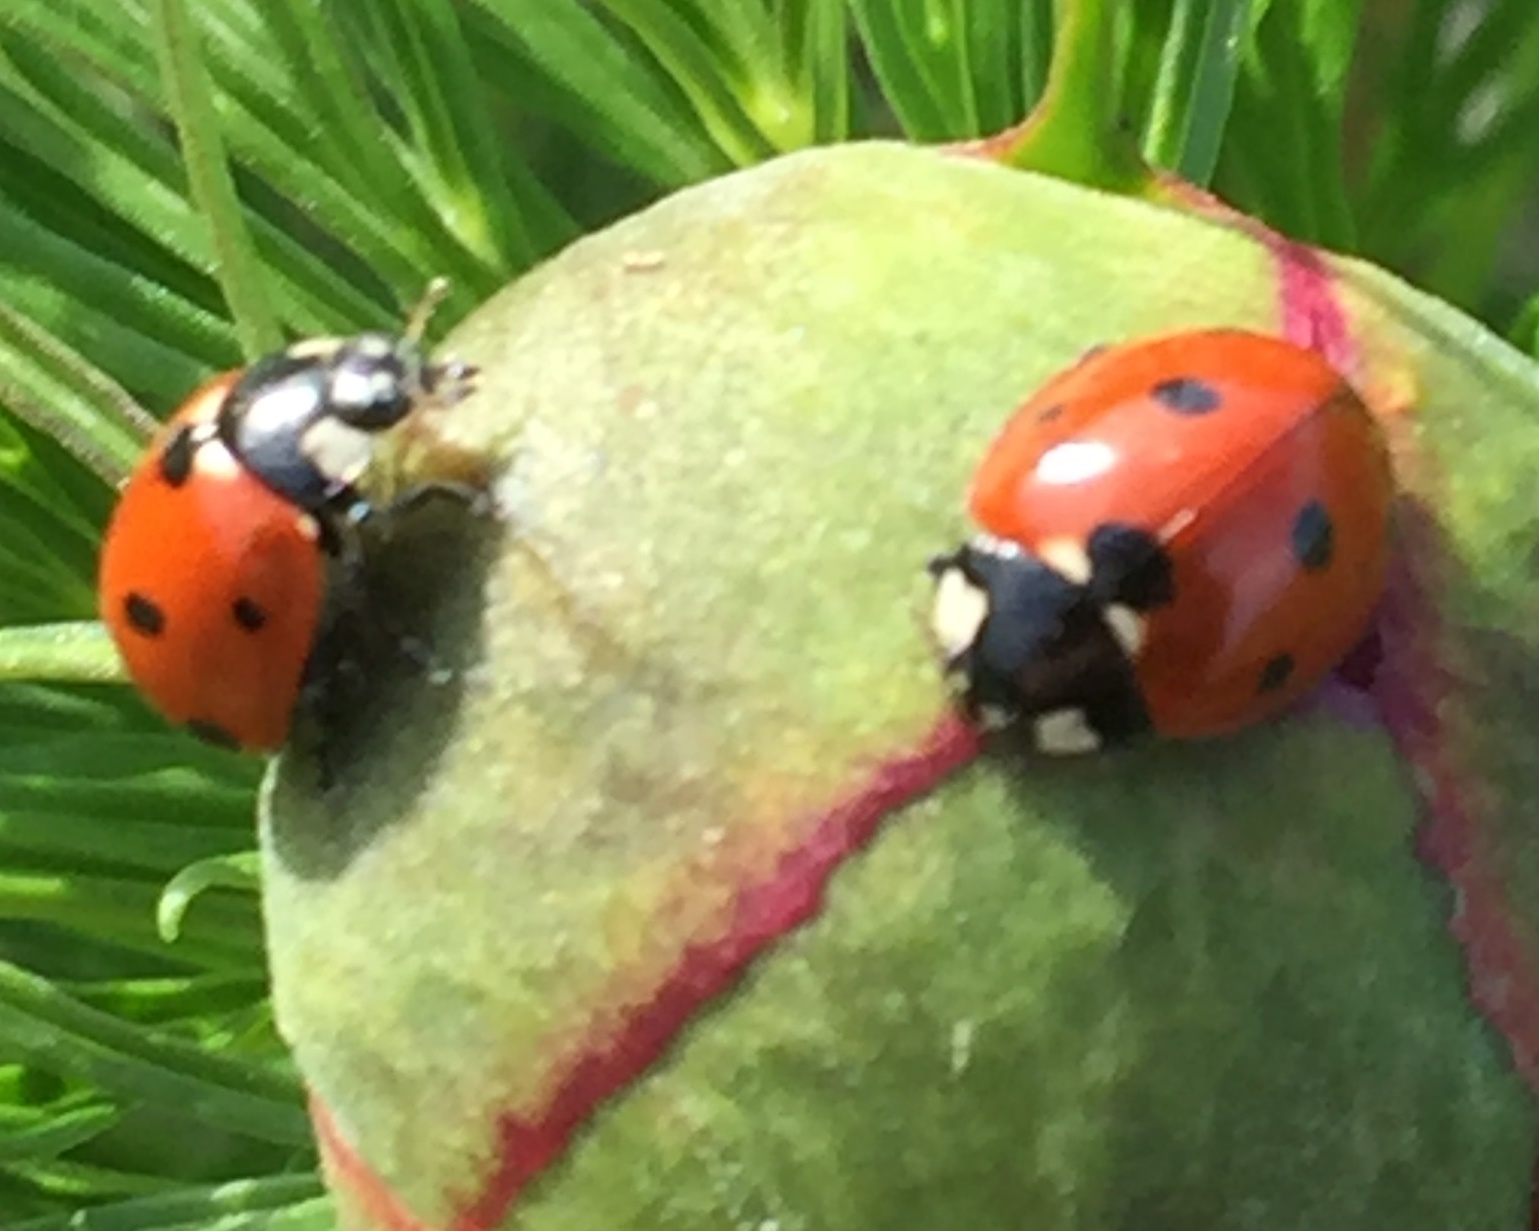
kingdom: Animalia
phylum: Arthropoda
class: Insecta
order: Coleoptera
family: Coccinellidae
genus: Coccinella
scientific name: Coccinella septempunctata
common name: Sevenspotted lady beetle
